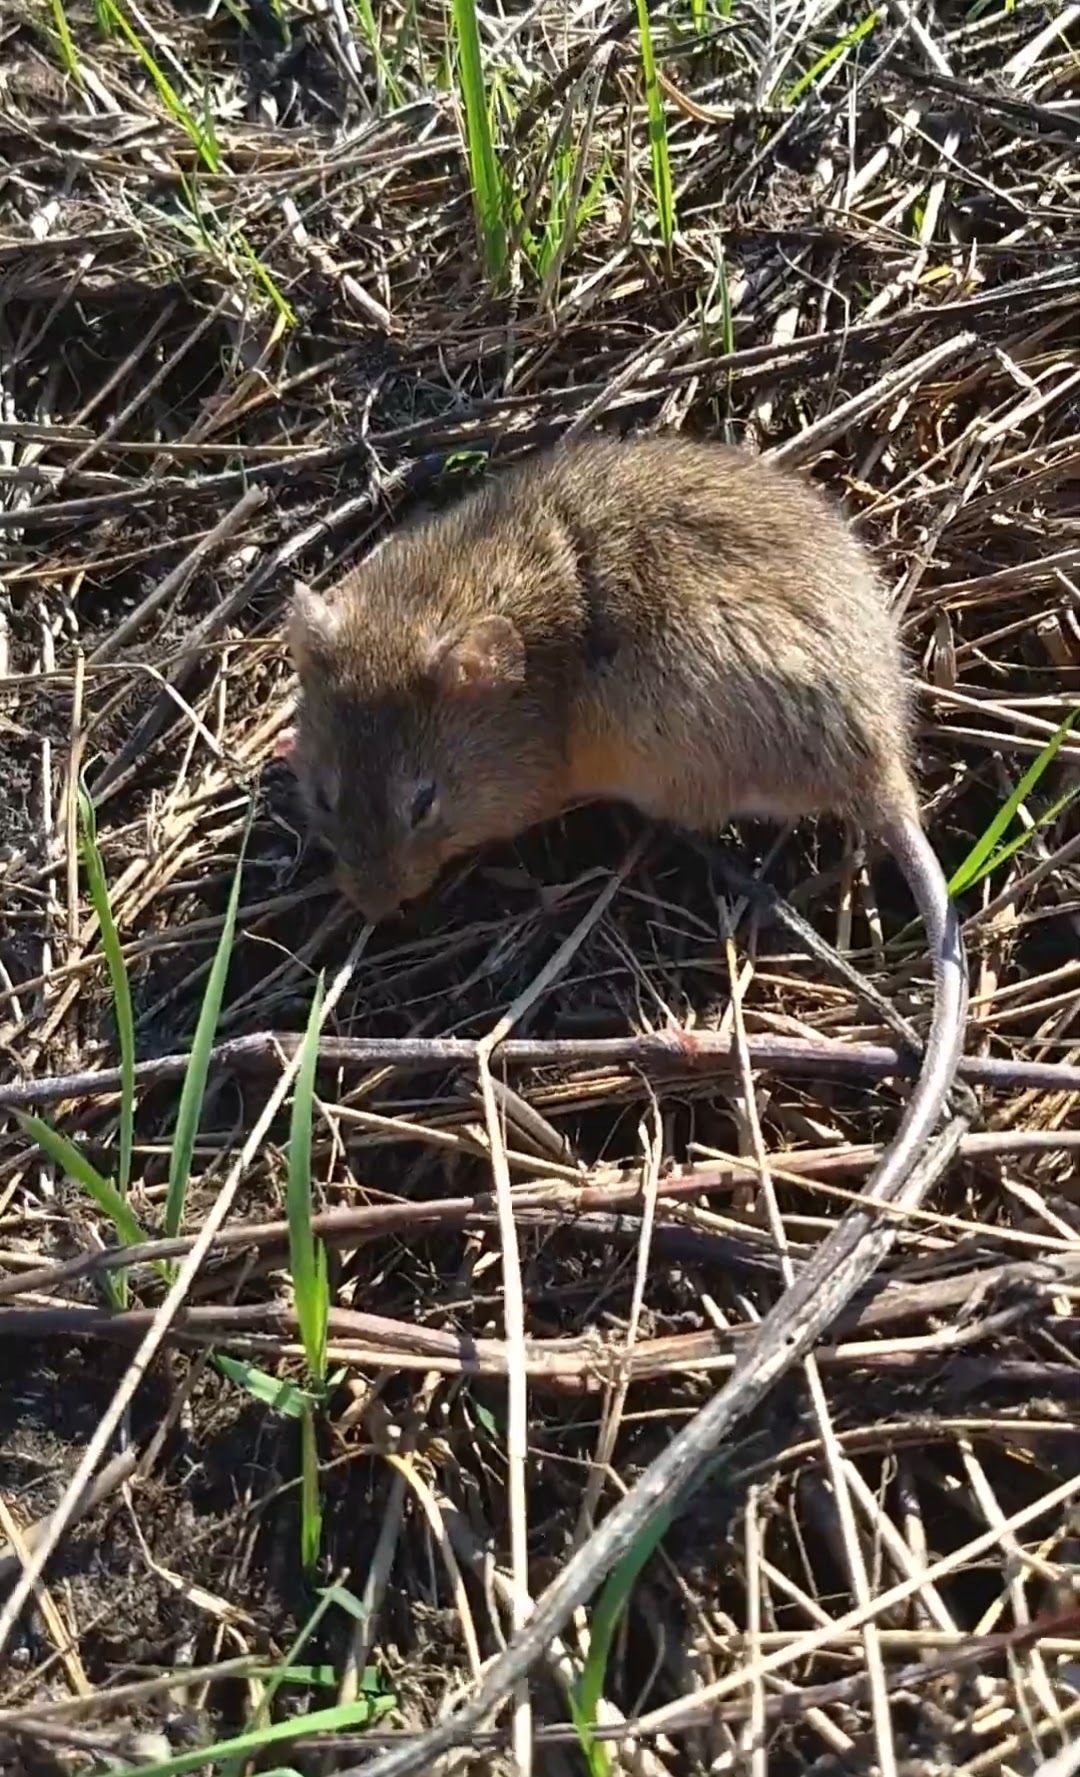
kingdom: Animalia
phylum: Chordata
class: Mammalia
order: Rodentia
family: Cricetidae
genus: Holochilus
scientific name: Holochilus chacarius
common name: Chacoan marsh rat
